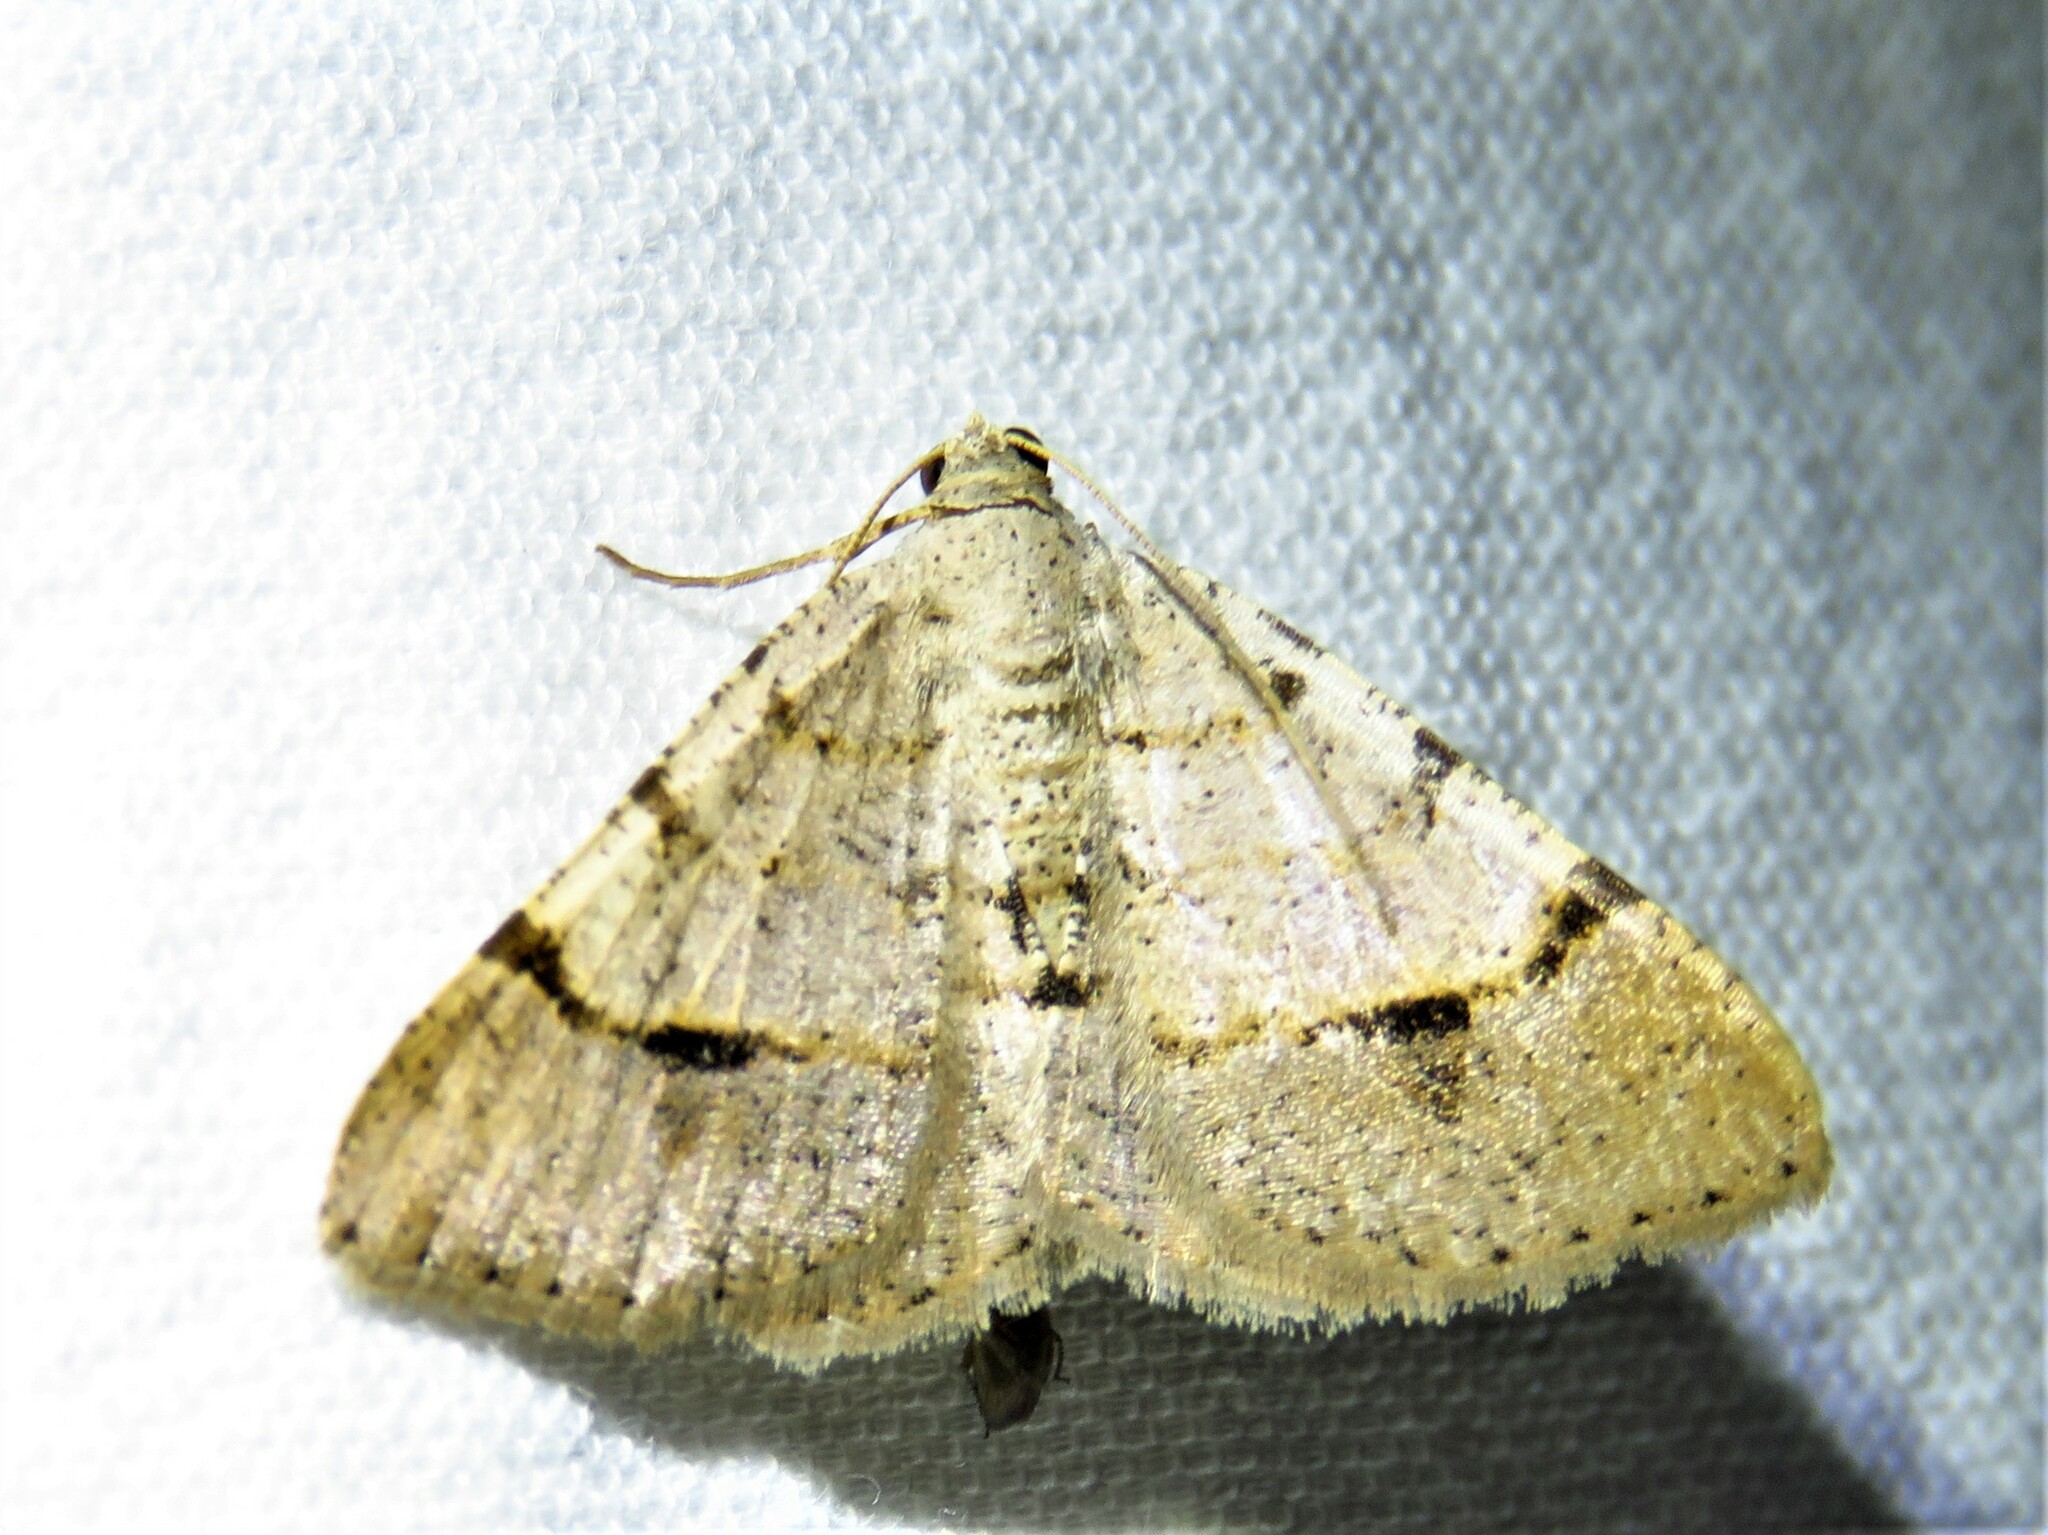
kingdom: Animalia
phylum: Arthropoda
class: Insecta
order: Lepidoptera
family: Geometridae
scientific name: Geometridae
